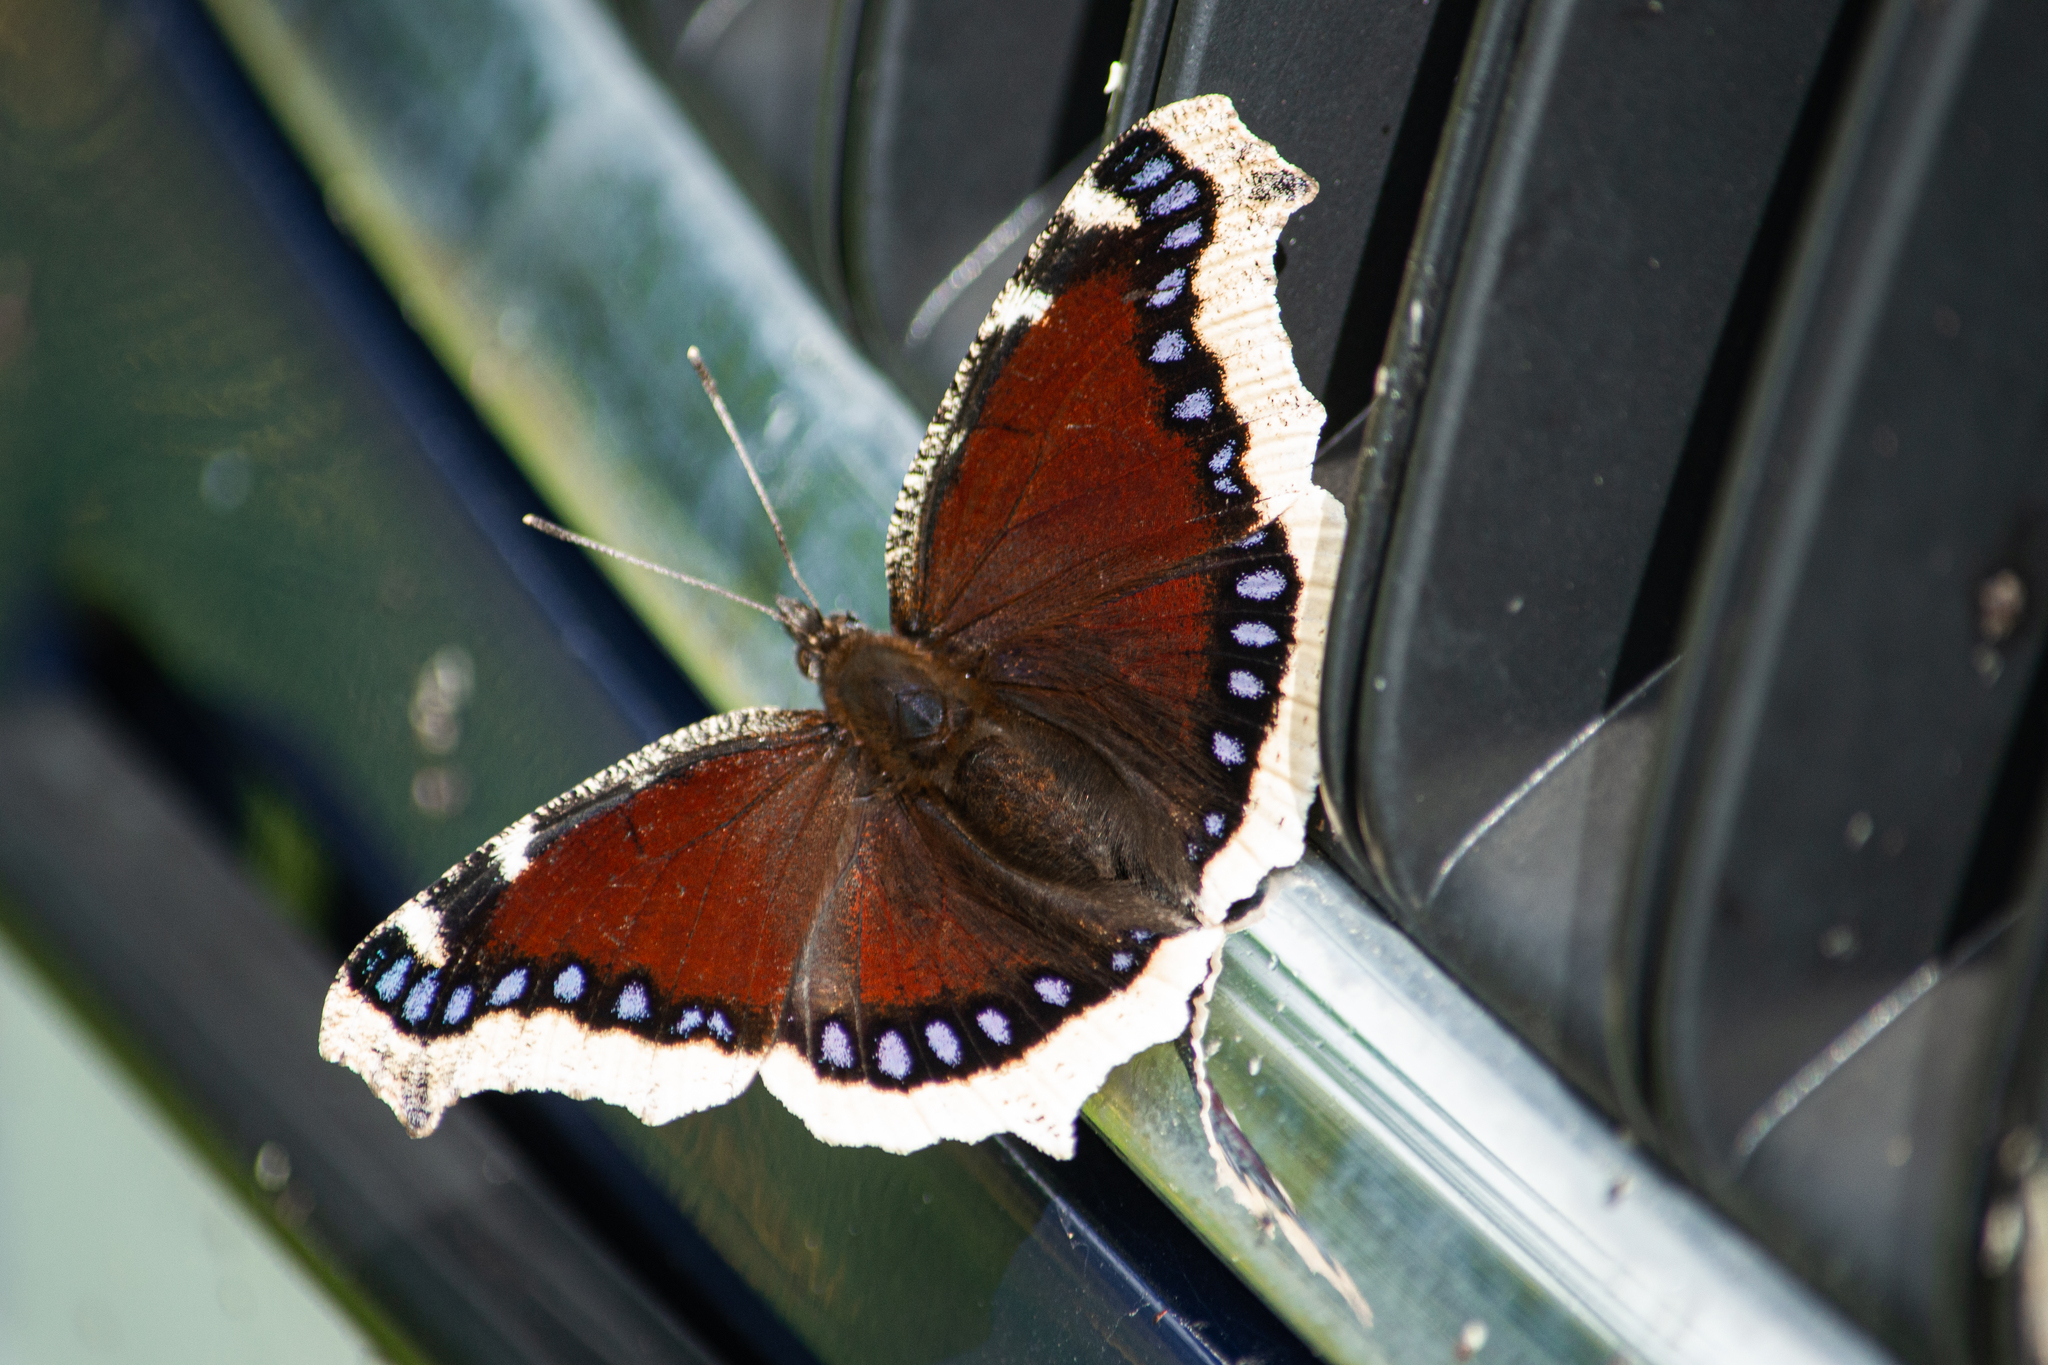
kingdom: Animalia
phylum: Arthropoda
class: Insecta
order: Lepidoptera
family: Nymphalidae
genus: Nymphalis
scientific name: Nymphalis antiopa
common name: Camberwell beauty
